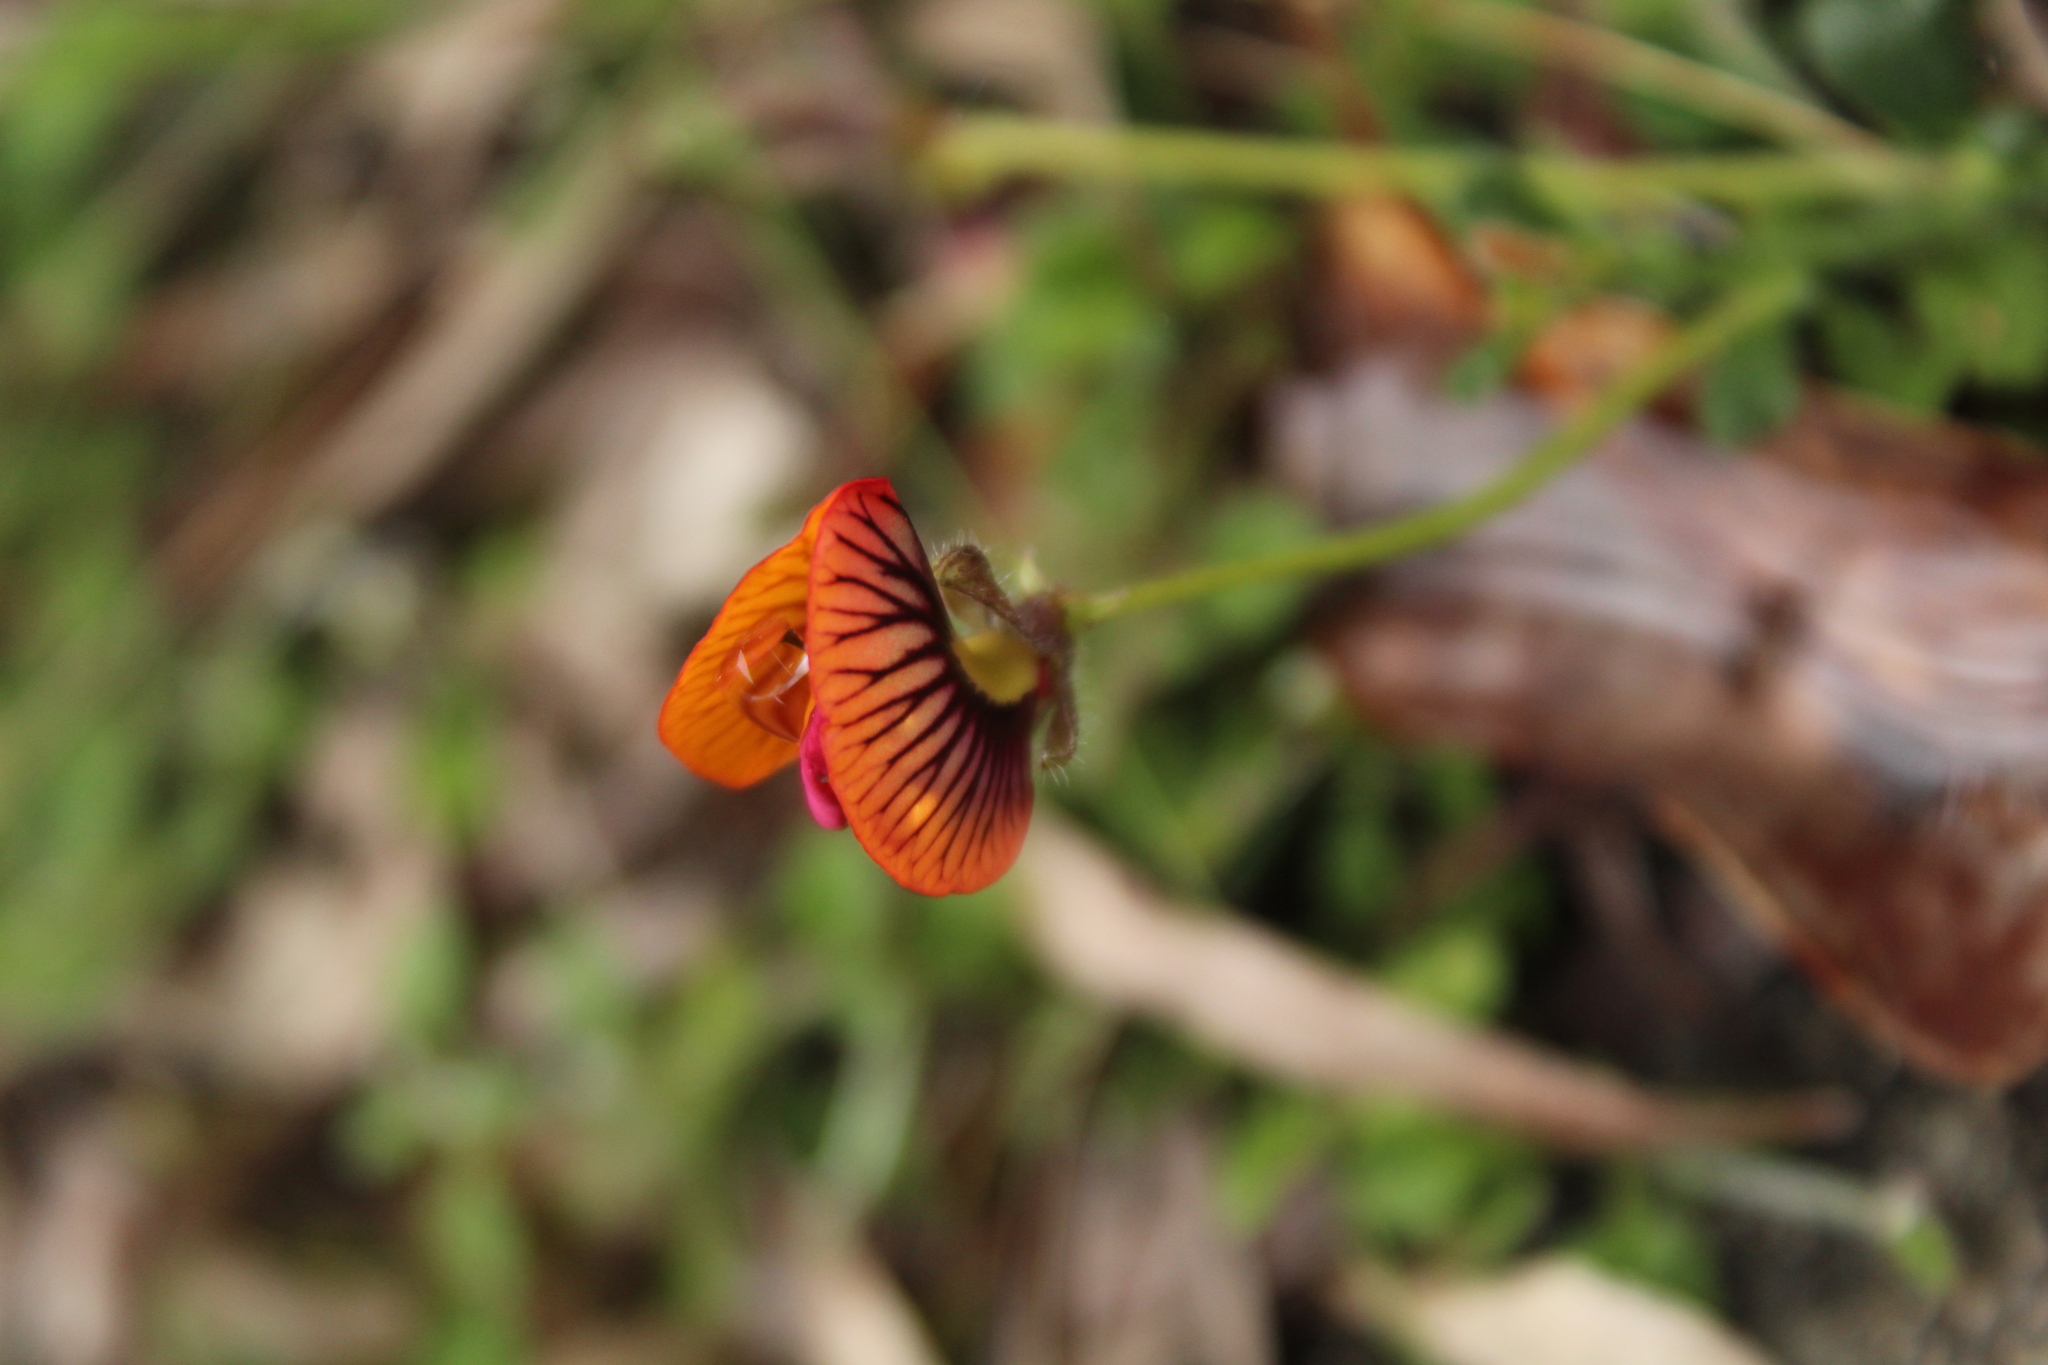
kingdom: Plantae
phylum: Tracheophyta
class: Magnoliopsida
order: Fabales
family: Fabaceae
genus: Isotropis
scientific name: Isotropis cuneifolia
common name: Granny bonnets
